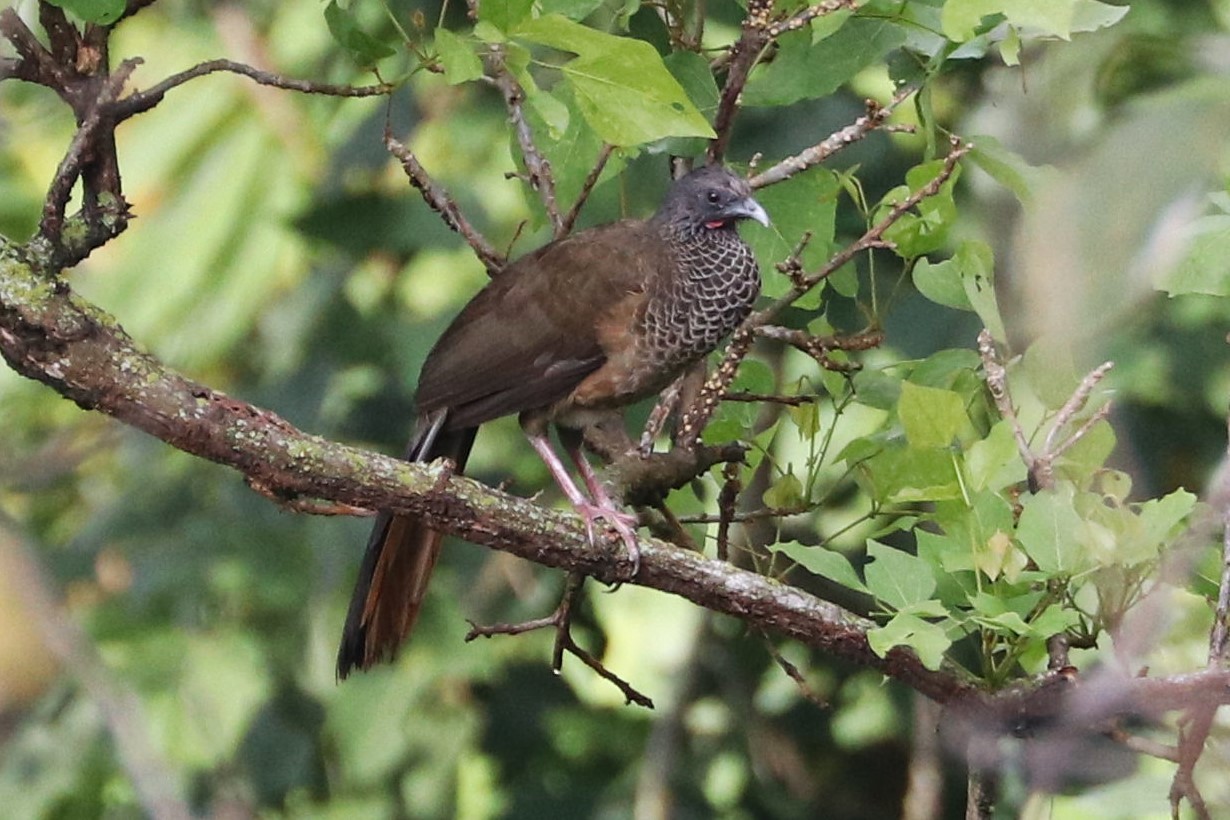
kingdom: Animalia
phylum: Chordata
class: Aves
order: Galliformes
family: Cracidae
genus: Ortalis
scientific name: Ortalis columbiana
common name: Colombian chachalaca
